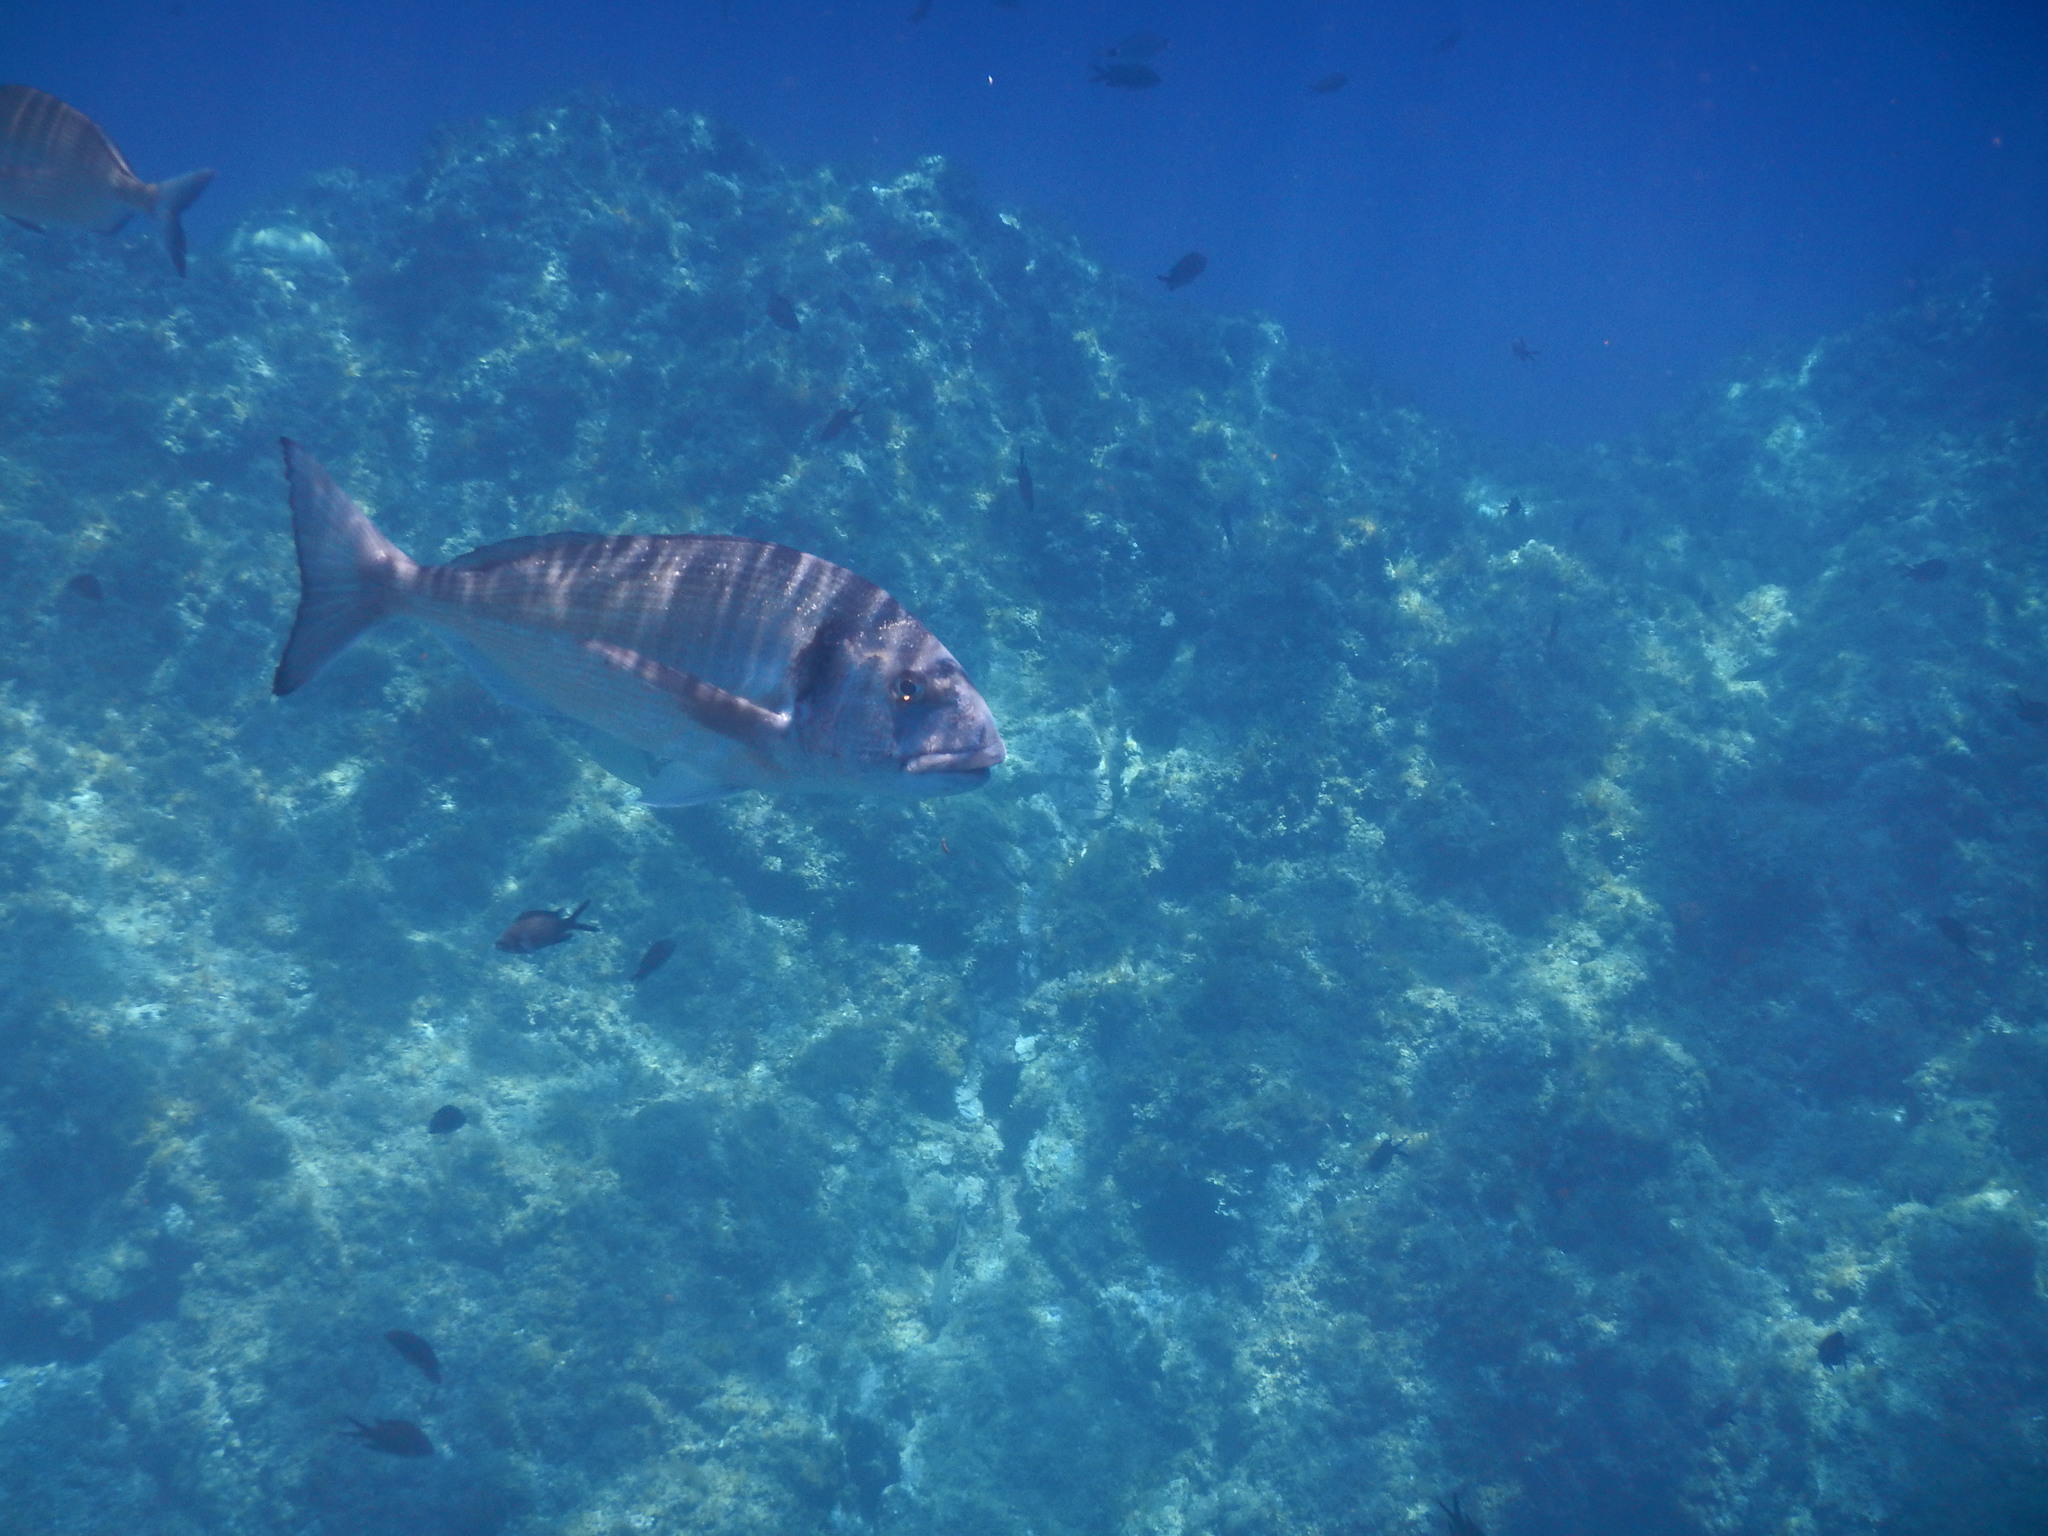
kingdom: Animalia
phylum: Chordata
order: Perciformes
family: Sparidae
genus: Sparus
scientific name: Sparus aurata
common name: Gilthead
